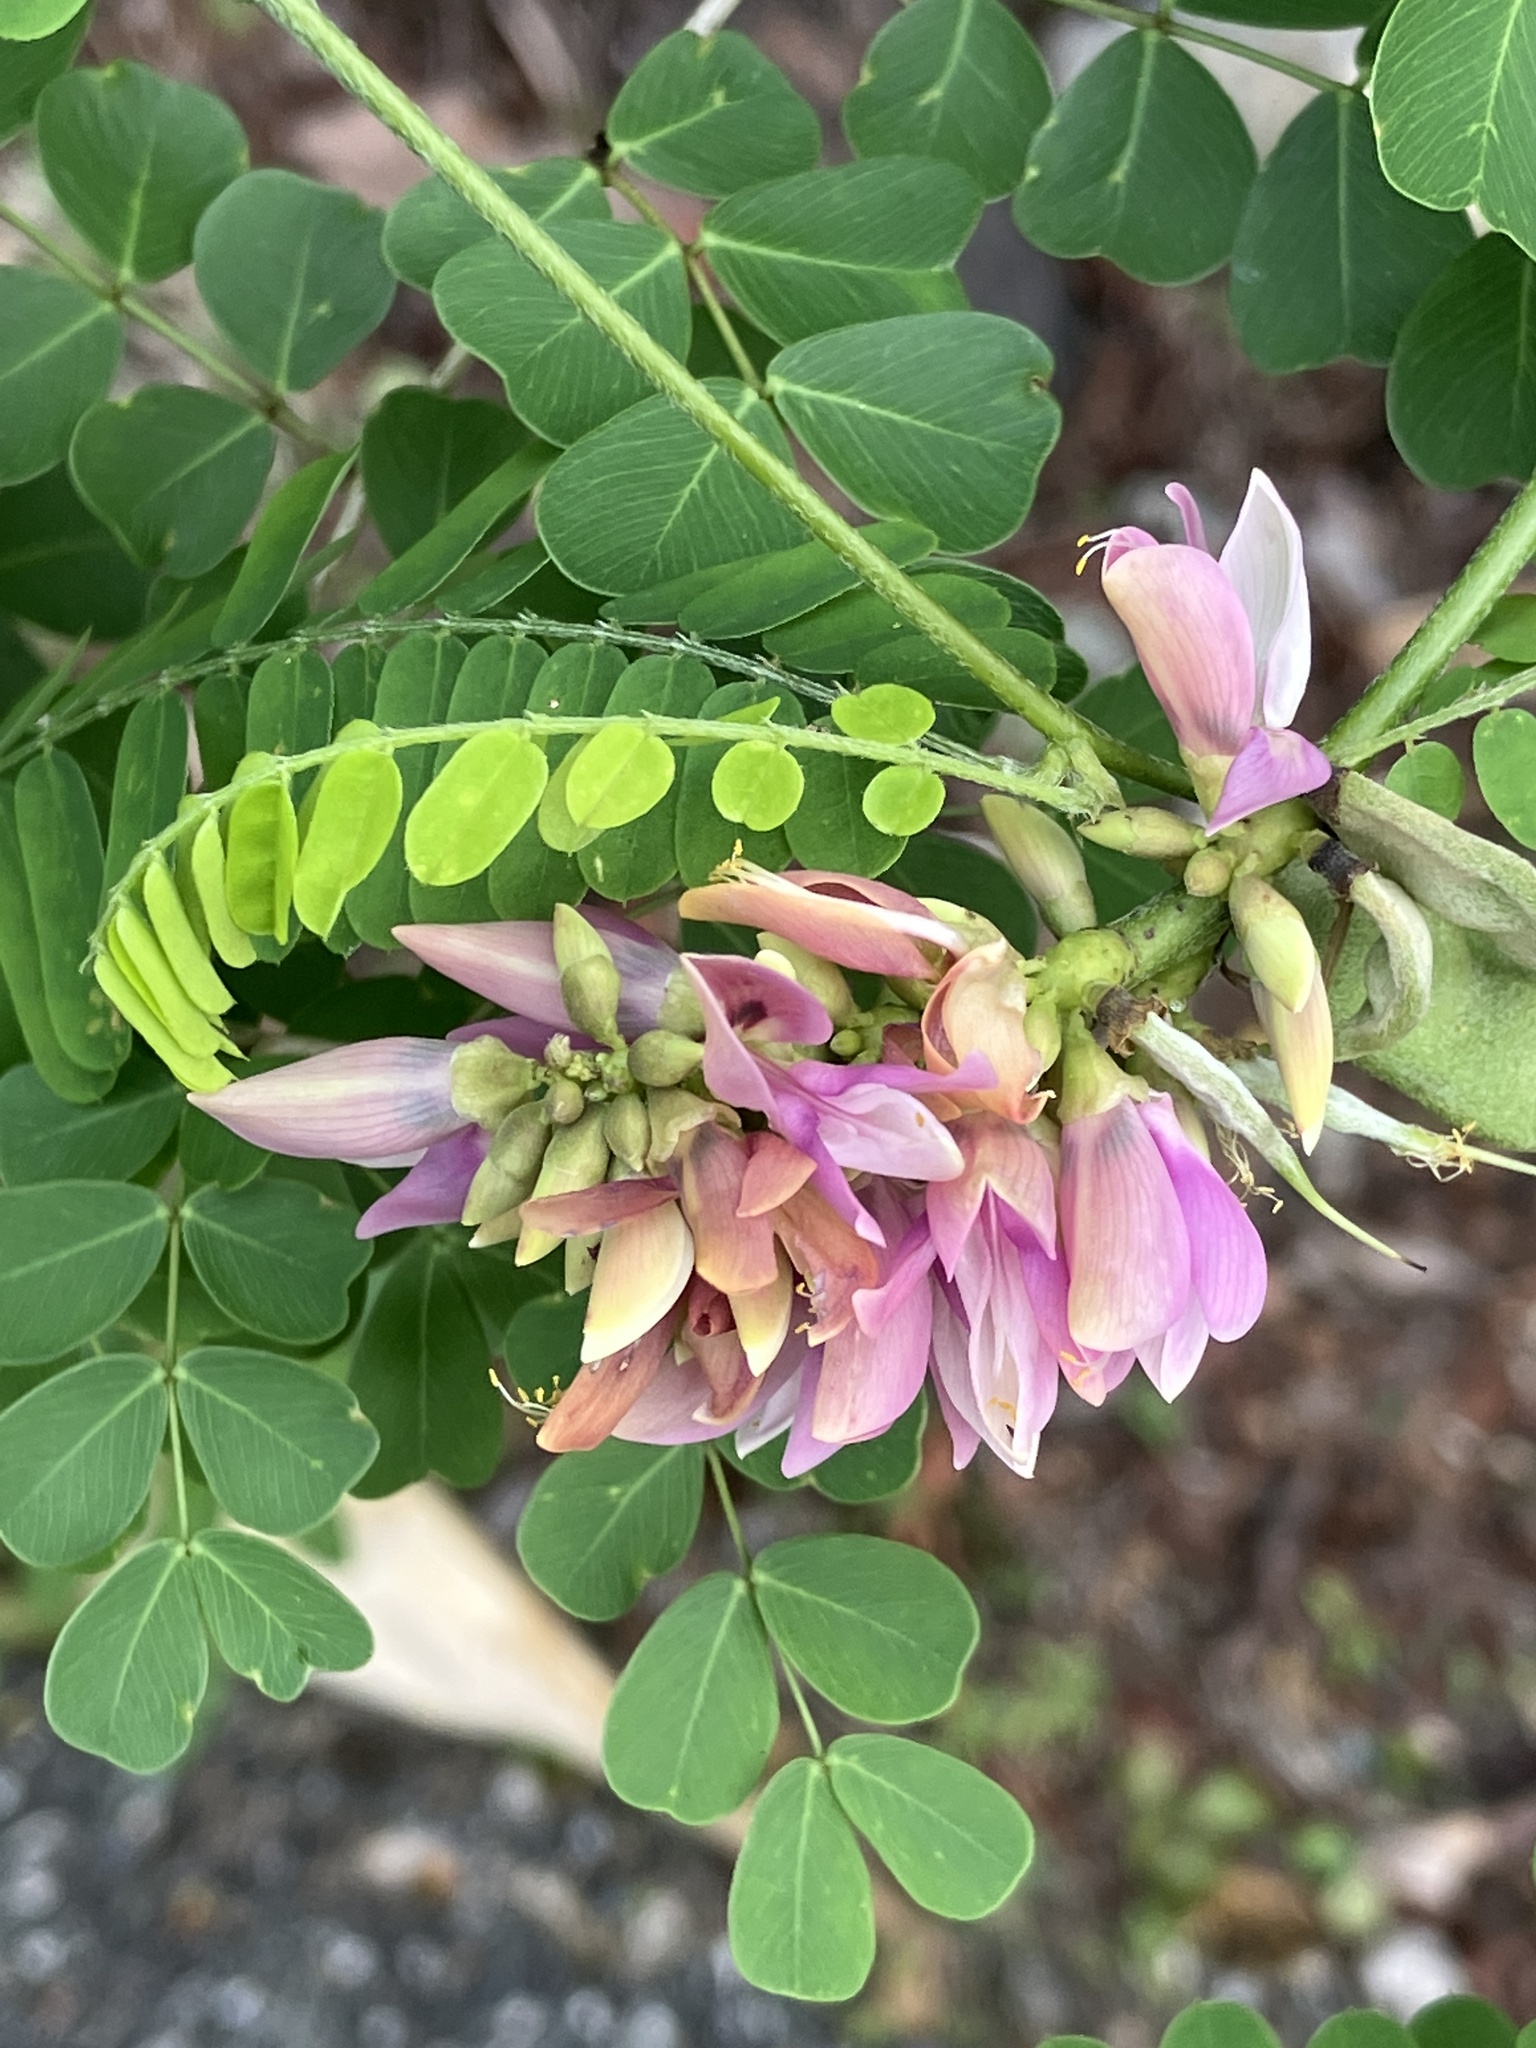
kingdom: Plantae
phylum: Tracheophyta
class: Magnoliopsida
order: Fabales
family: Fabaceae
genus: Abrus
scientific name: Abrus precatorius
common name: Rosarypea
